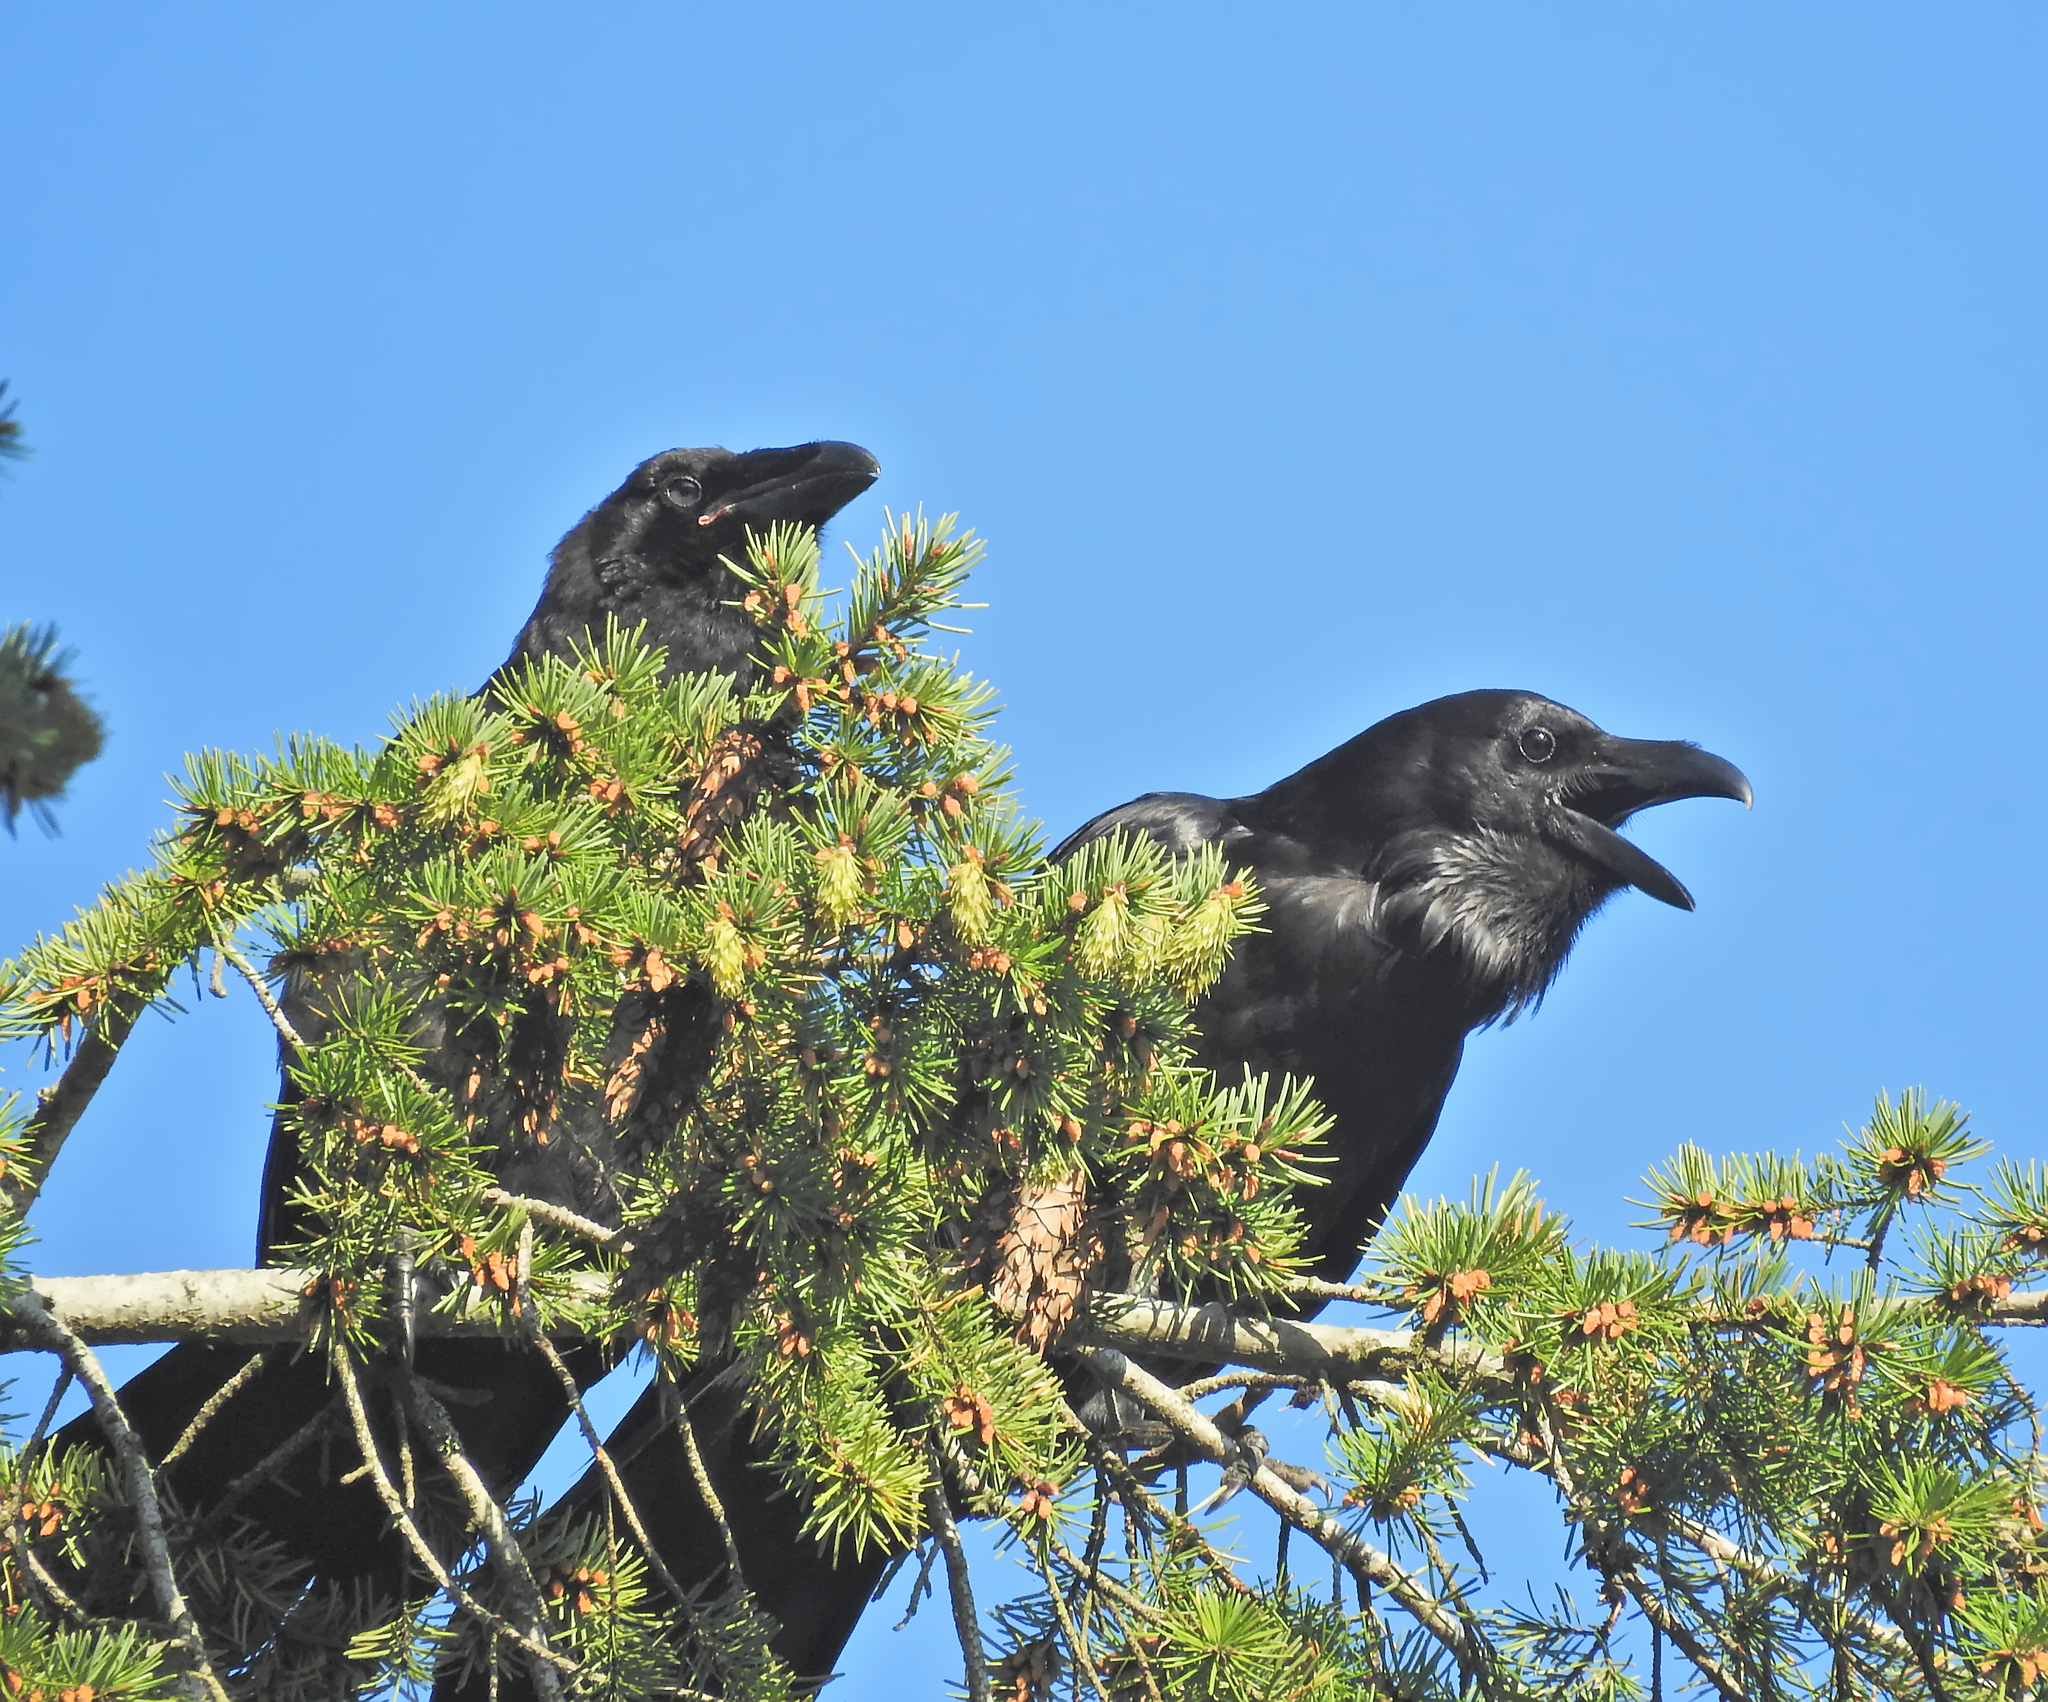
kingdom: Animalia
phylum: Chordata
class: Aves
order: Passeriformes
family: Corvidae
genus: Corvus
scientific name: Corvus corax
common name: Common raven
